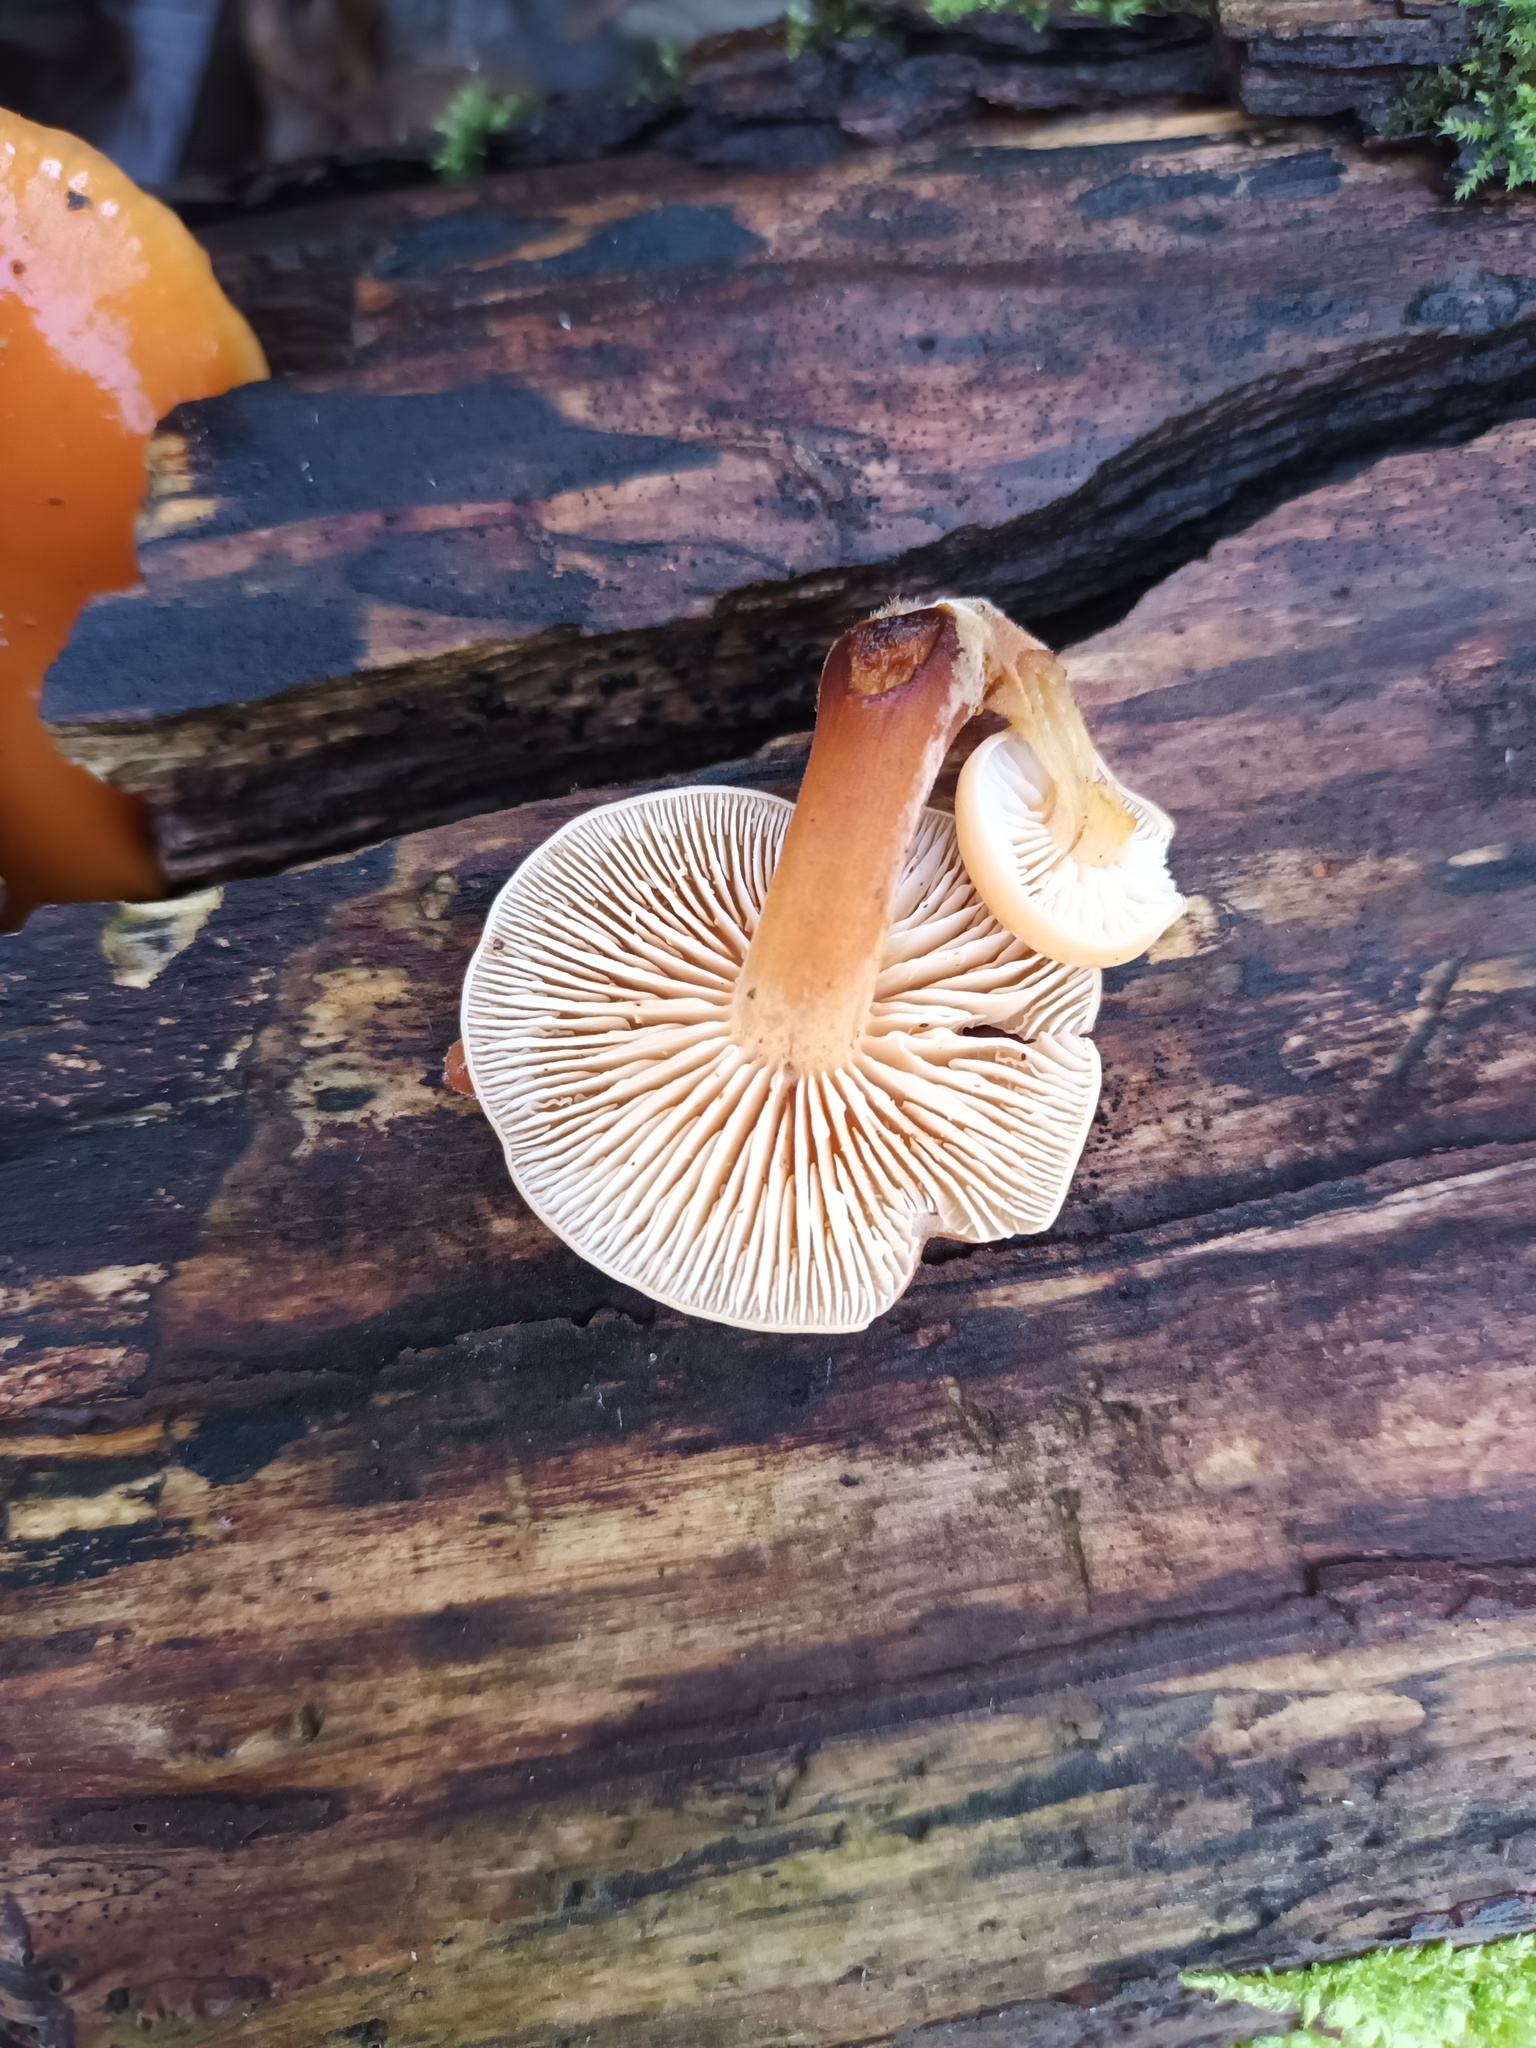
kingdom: Fungi
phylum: Basidiomycota
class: Agaricomycetes
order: Agaricales
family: Physalacriaceae
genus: Flammulina
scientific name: Flammulina
